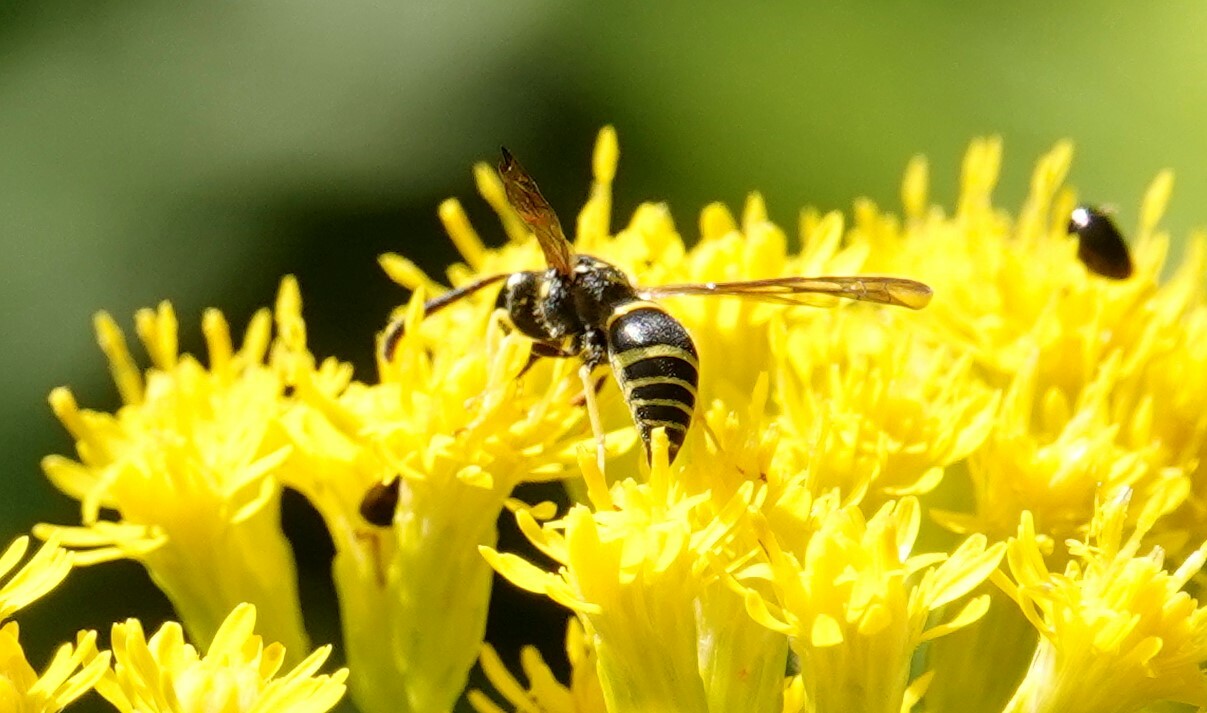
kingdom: Animalia
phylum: Arthropoda
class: Insecta
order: Hymenoptera
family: Vespidae
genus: Ancistrocerus
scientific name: Ancistrocerus adiabatus
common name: Bramble mason wasp
